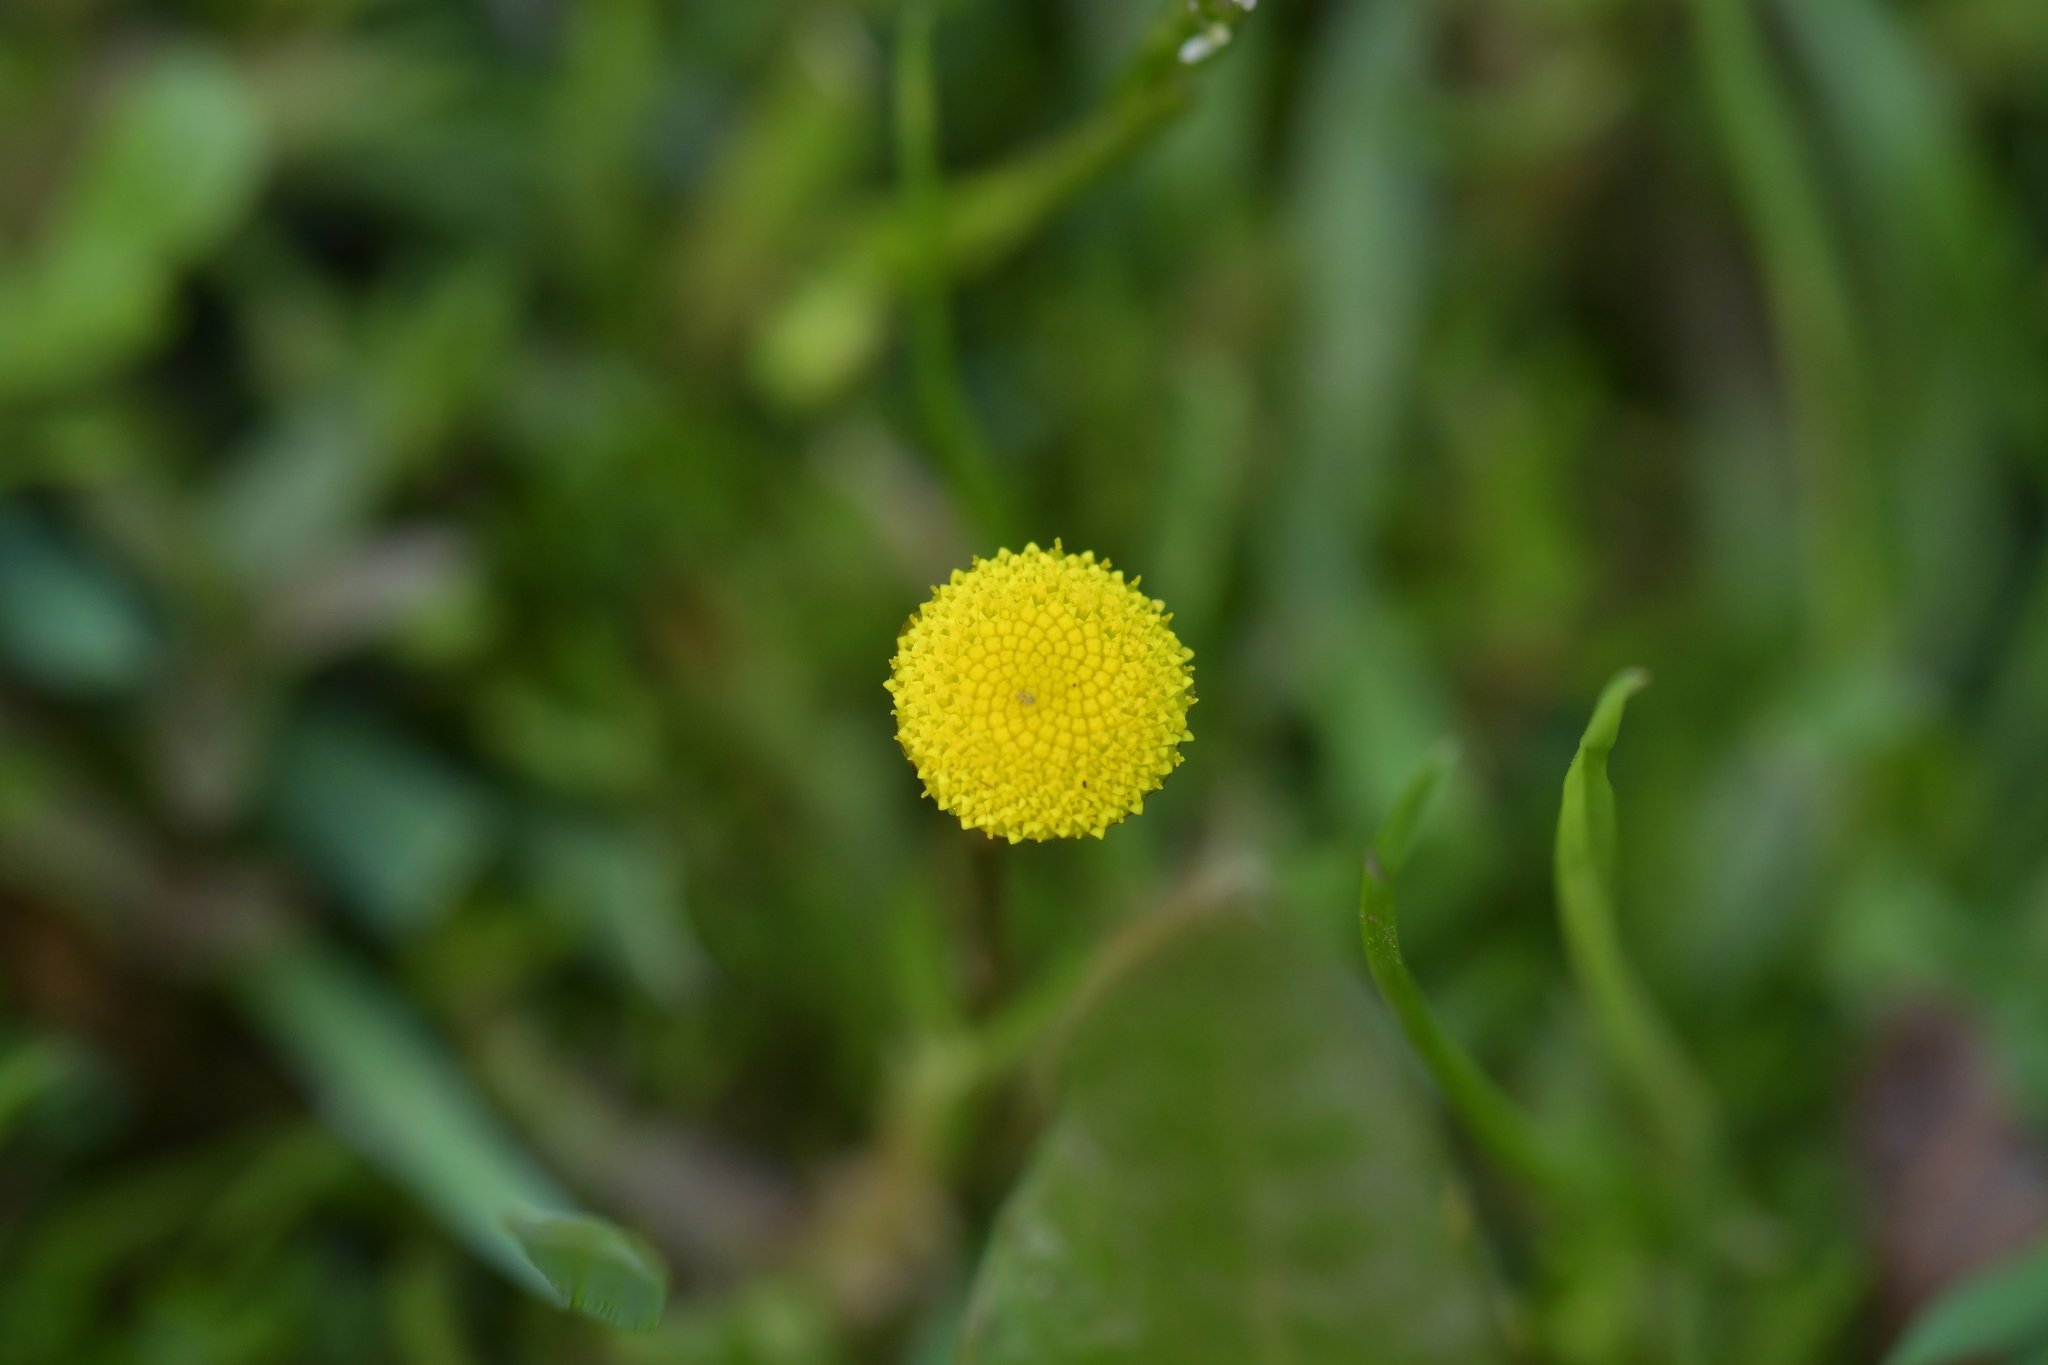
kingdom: Plantae
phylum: Tracheophyta
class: Magnoliopsida
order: Asterales
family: Asteraceae
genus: Cotula
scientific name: Cotula coronopifolia
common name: Buttonweed
